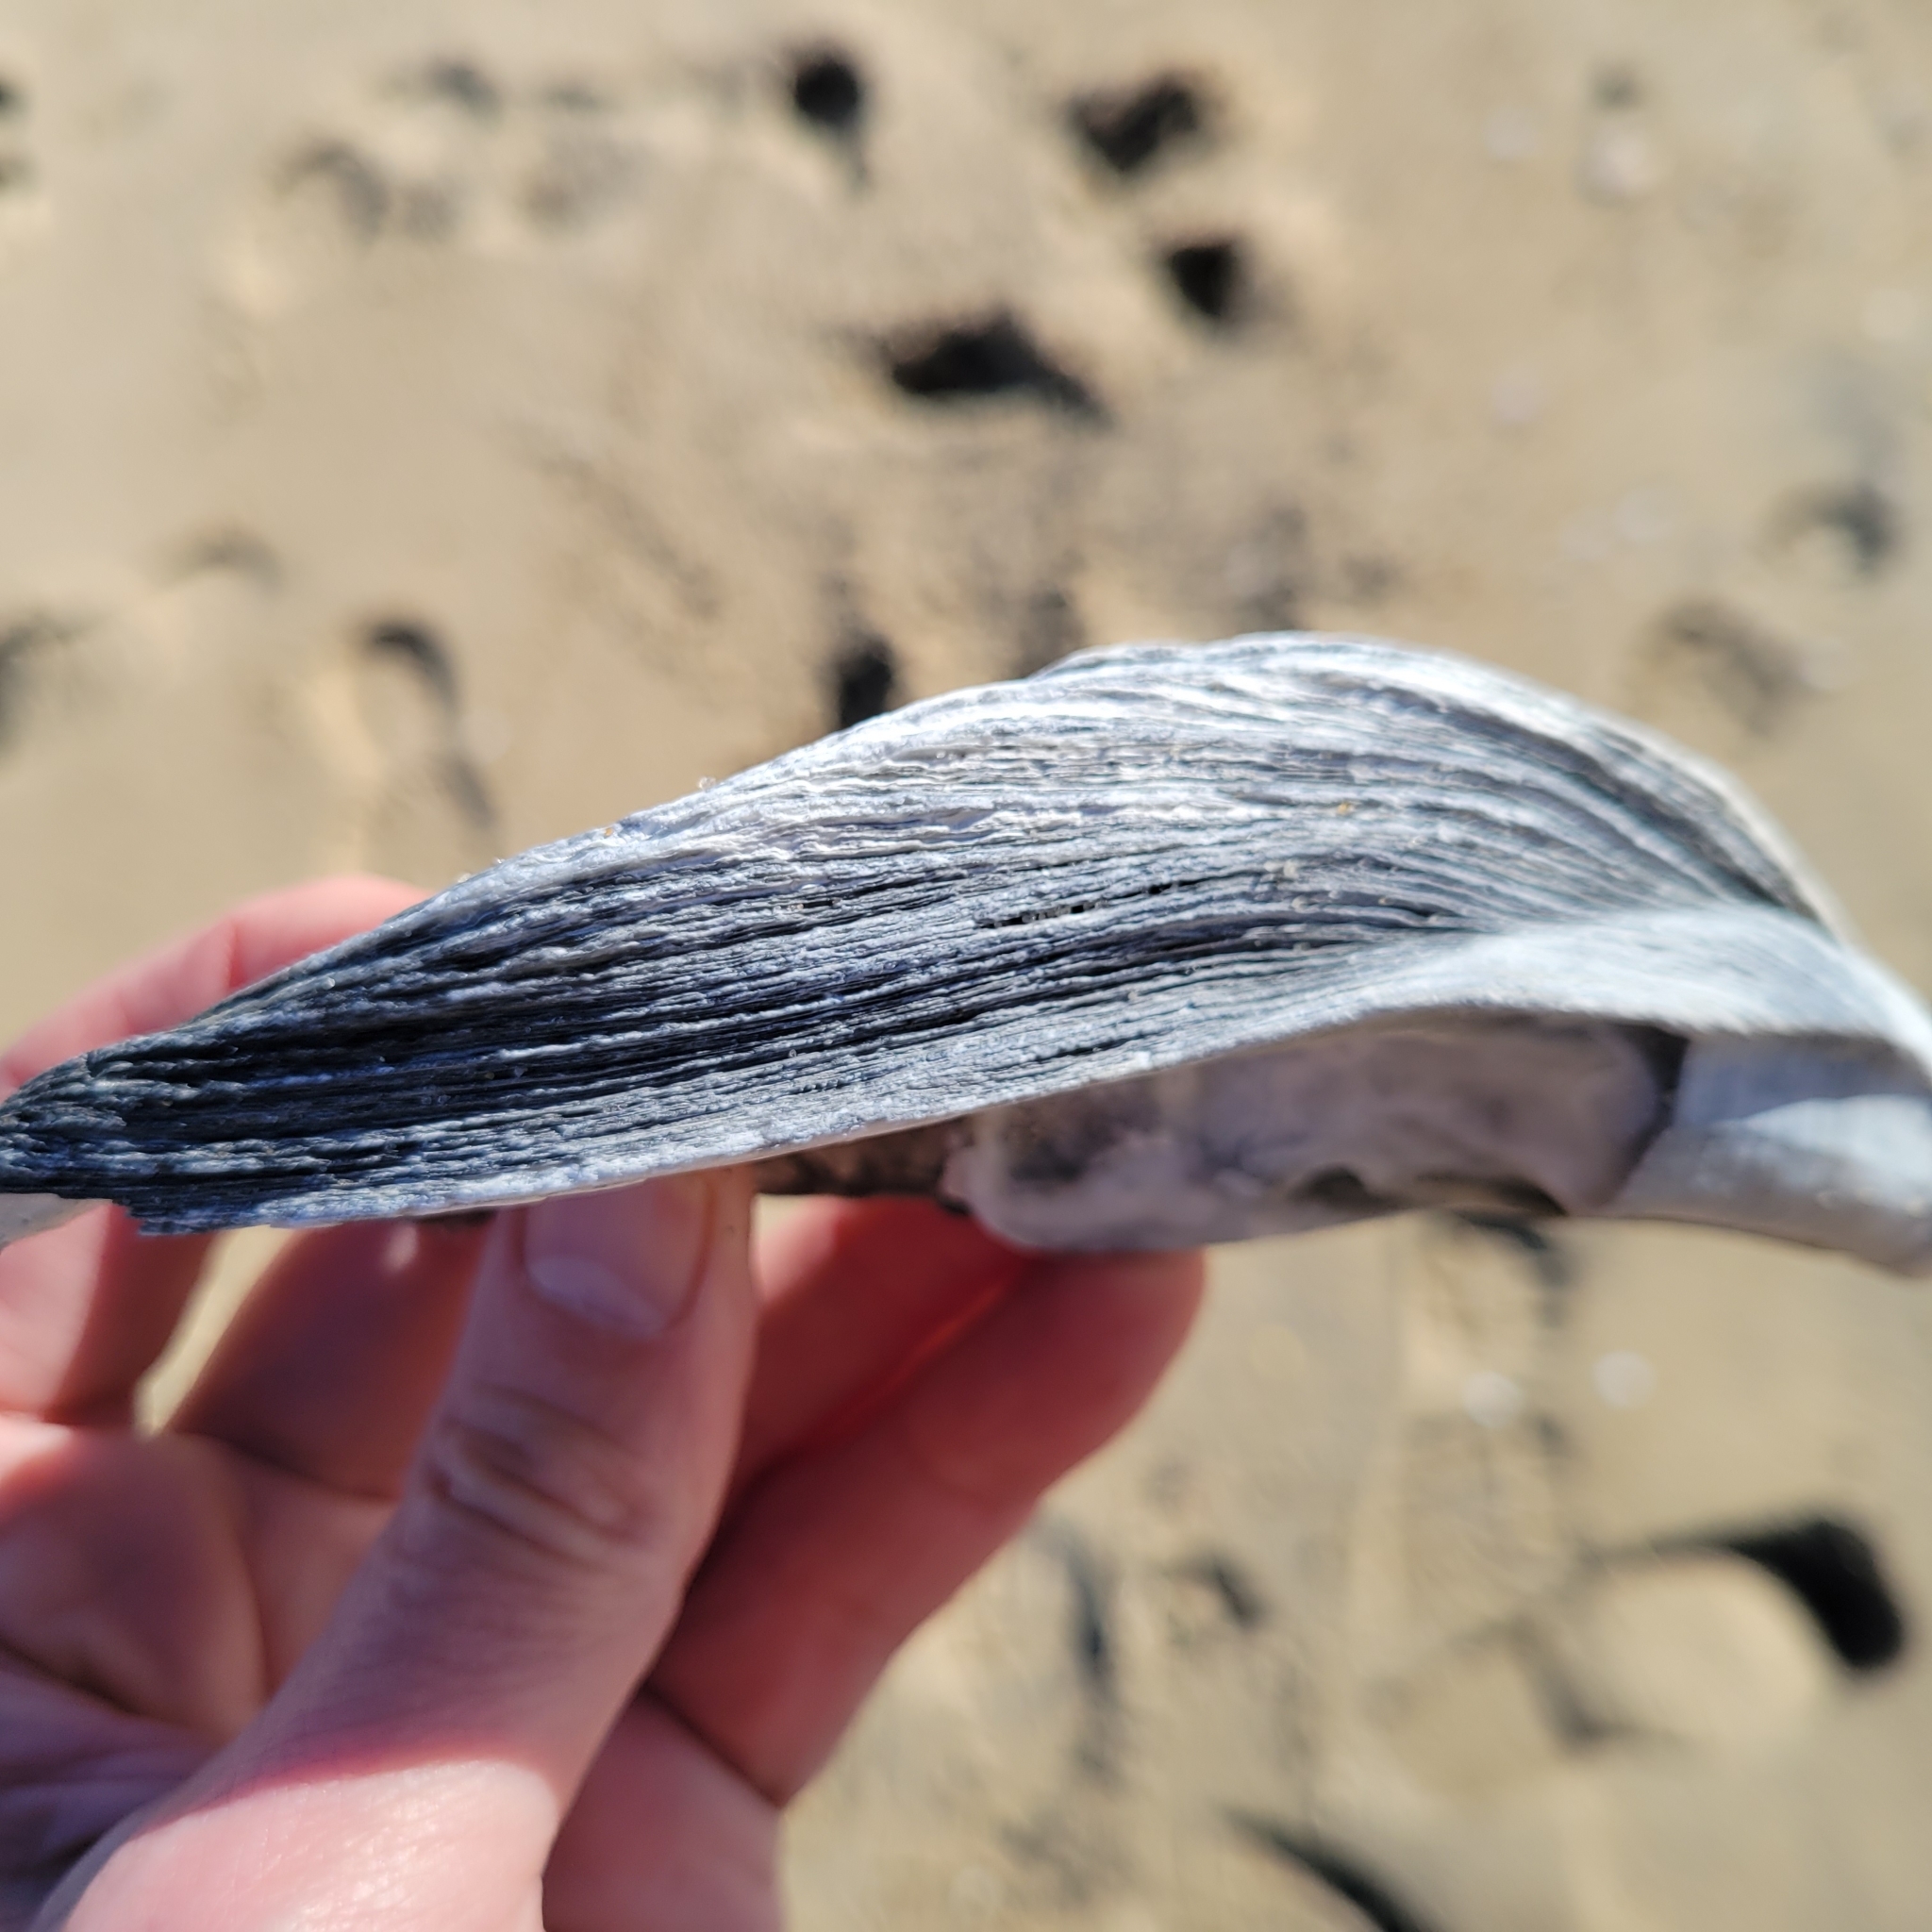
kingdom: Animalia
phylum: Mollusca
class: Bivalvia
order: Ostreida
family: Ostreidae
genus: Crassostrea
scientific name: Crassostrea virginica
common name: American oyster
